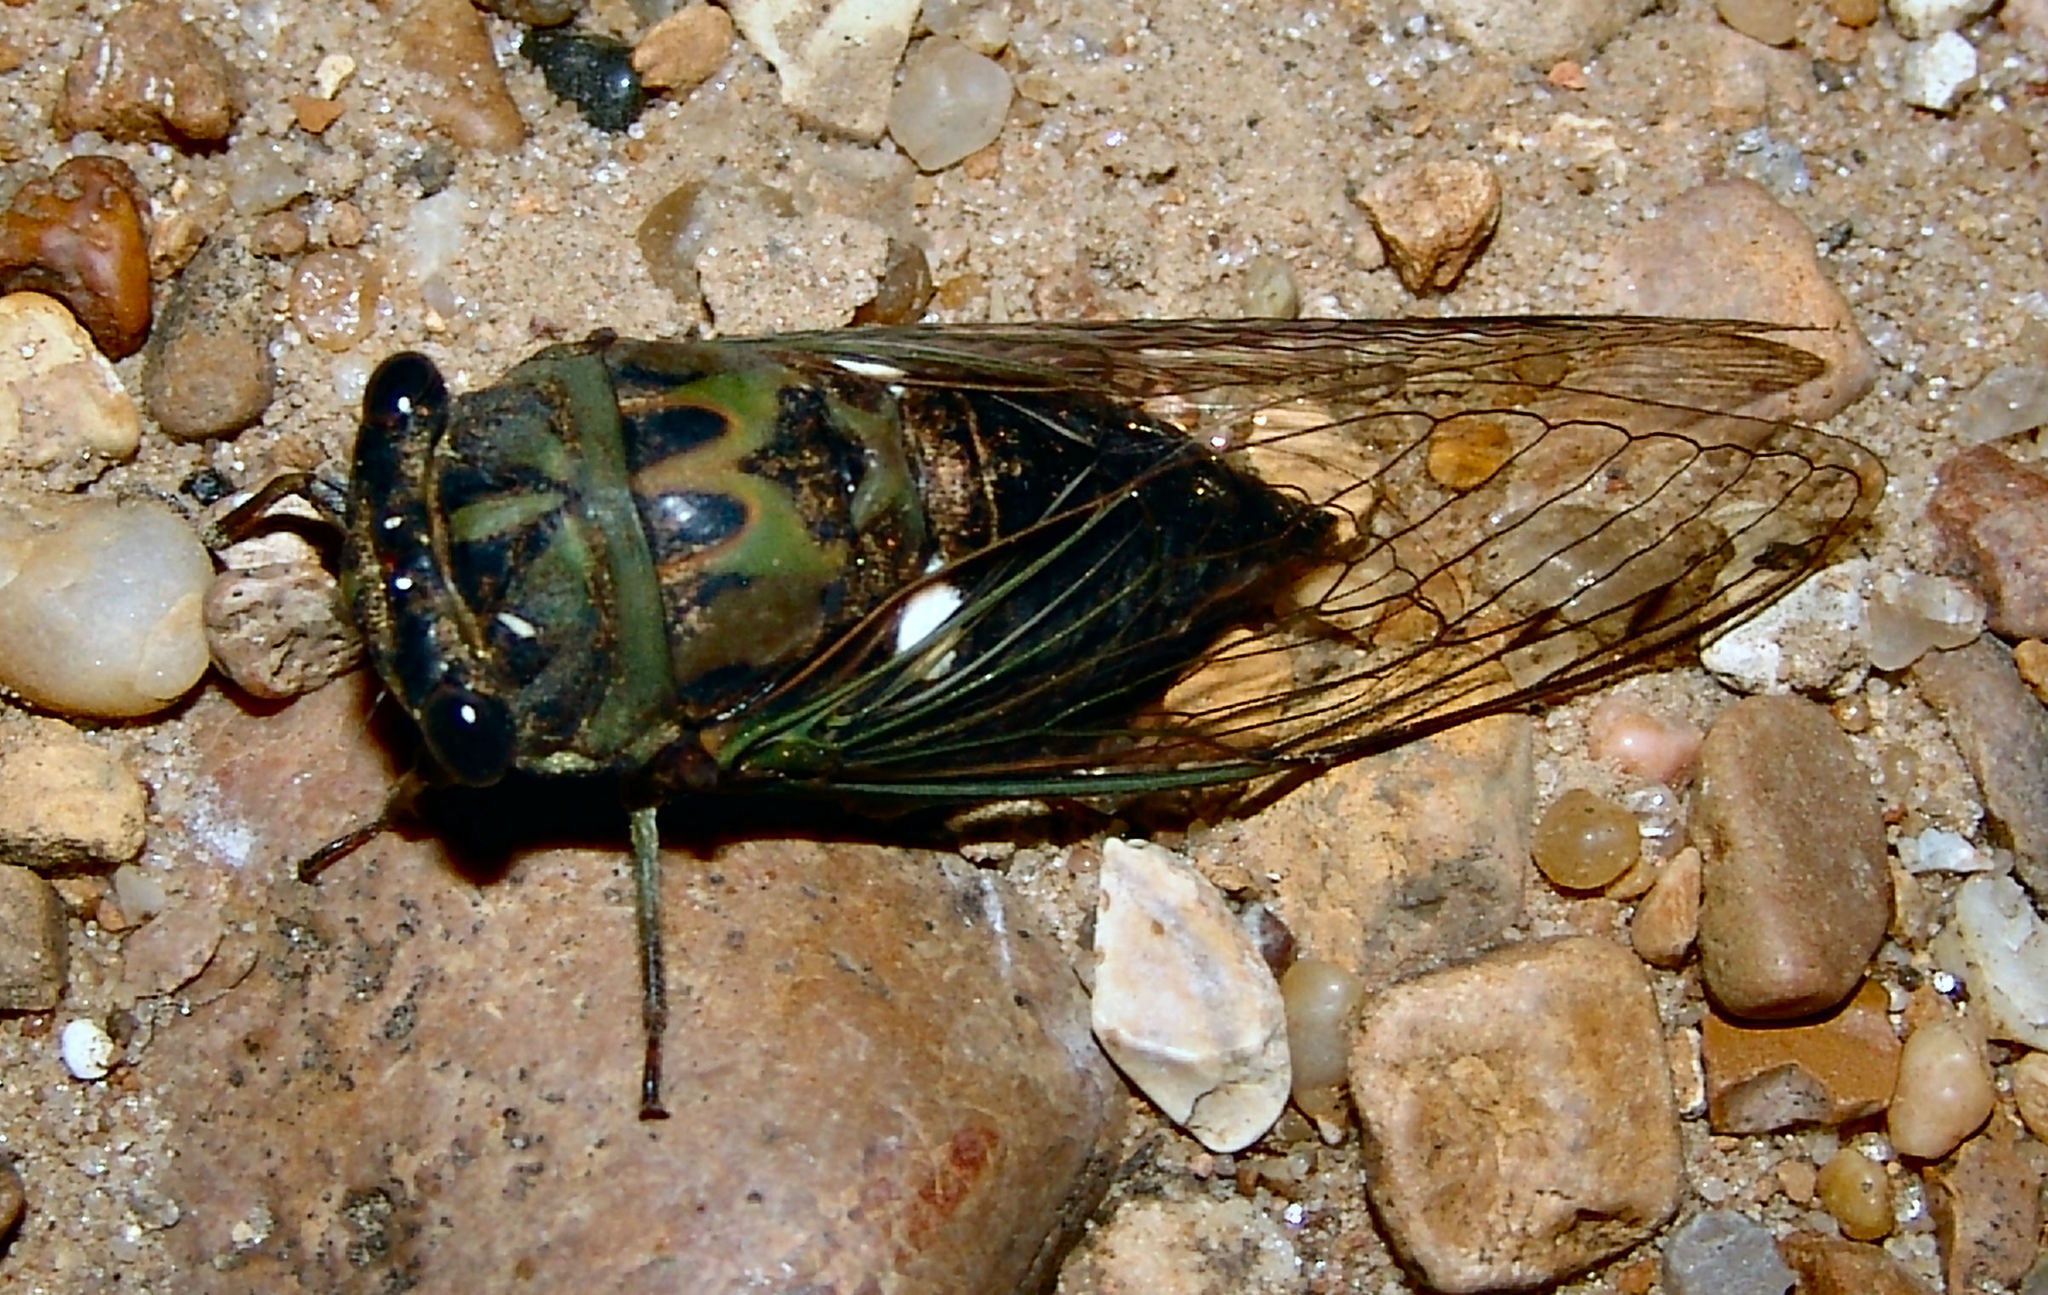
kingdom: Animalia
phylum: Arthropoda
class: Insecta
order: Hemiptera
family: Cicadidae
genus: Neotibicen
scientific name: Neotibicen pruinosus
